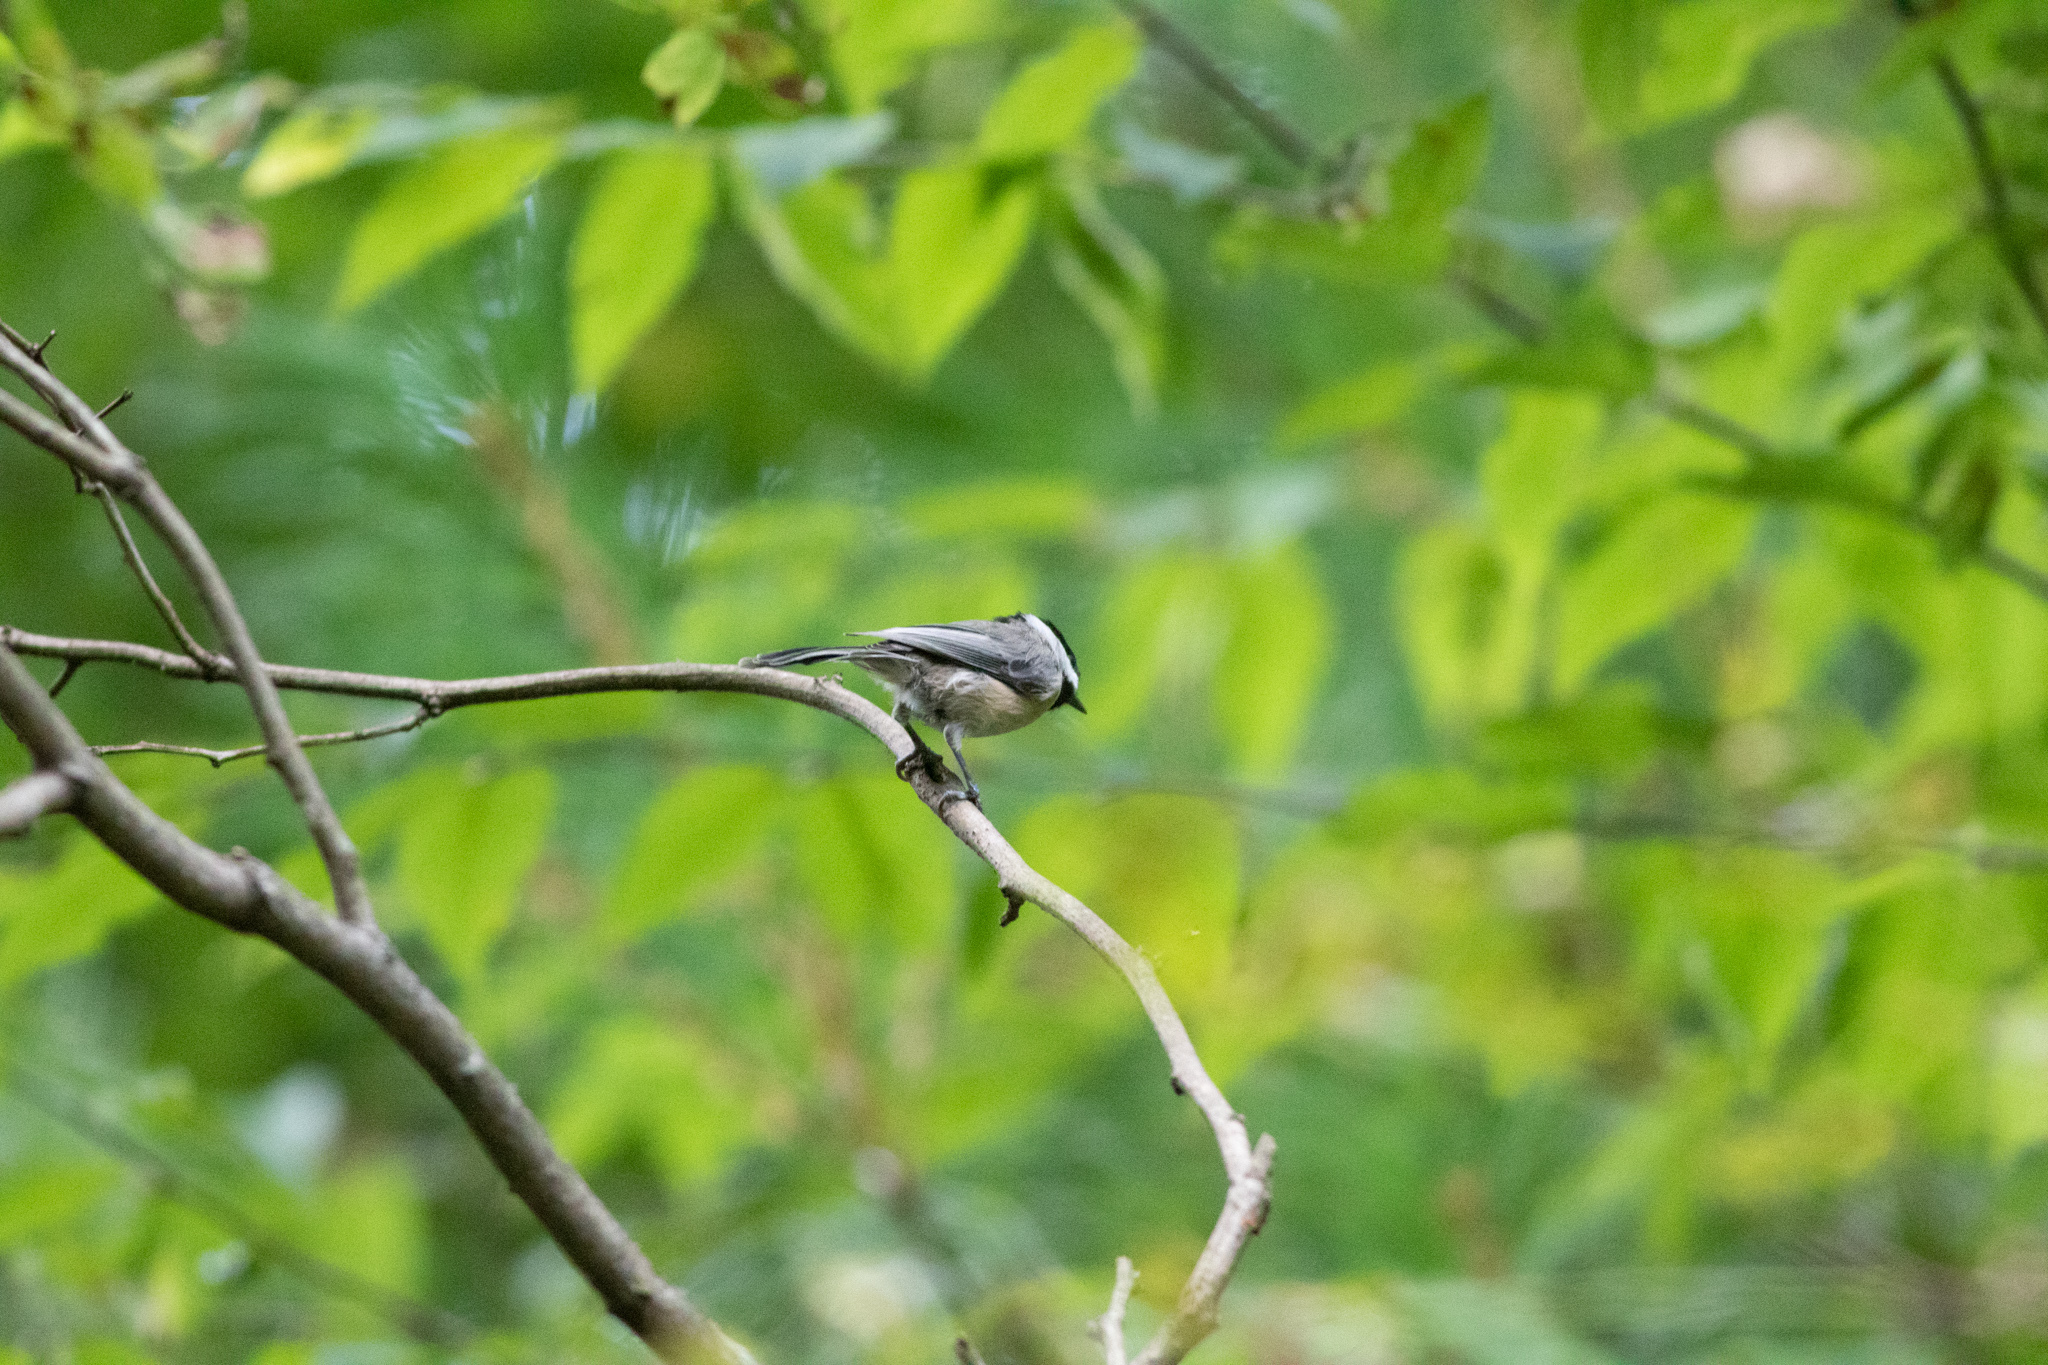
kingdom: Animalia
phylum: Chordata
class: Aves
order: Passeriformes
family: Paridae
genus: Poecile
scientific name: Poecile carolinensis
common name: Carolina chickadee
